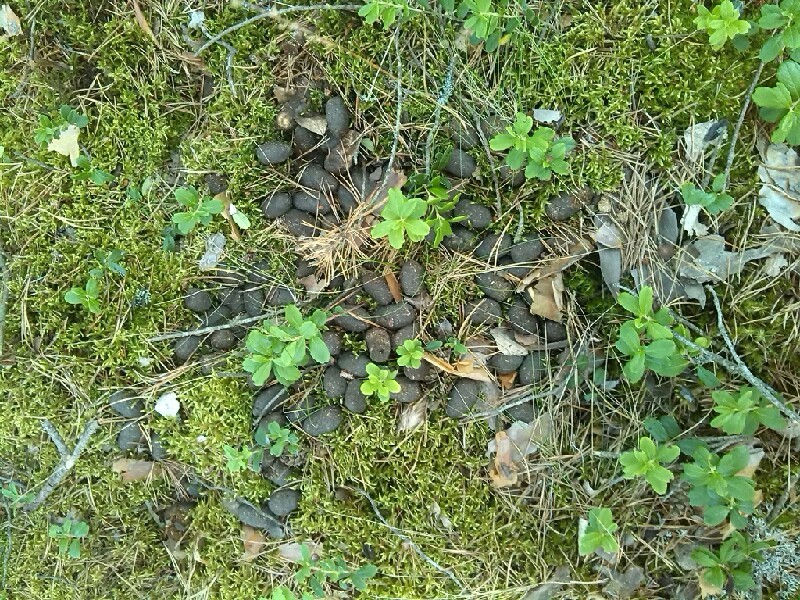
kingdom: Animalia
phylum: Chordata
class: Mammalia
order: Artiodactyla
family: Cervidae
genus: Alces
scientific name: Alces alces
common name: Moose
